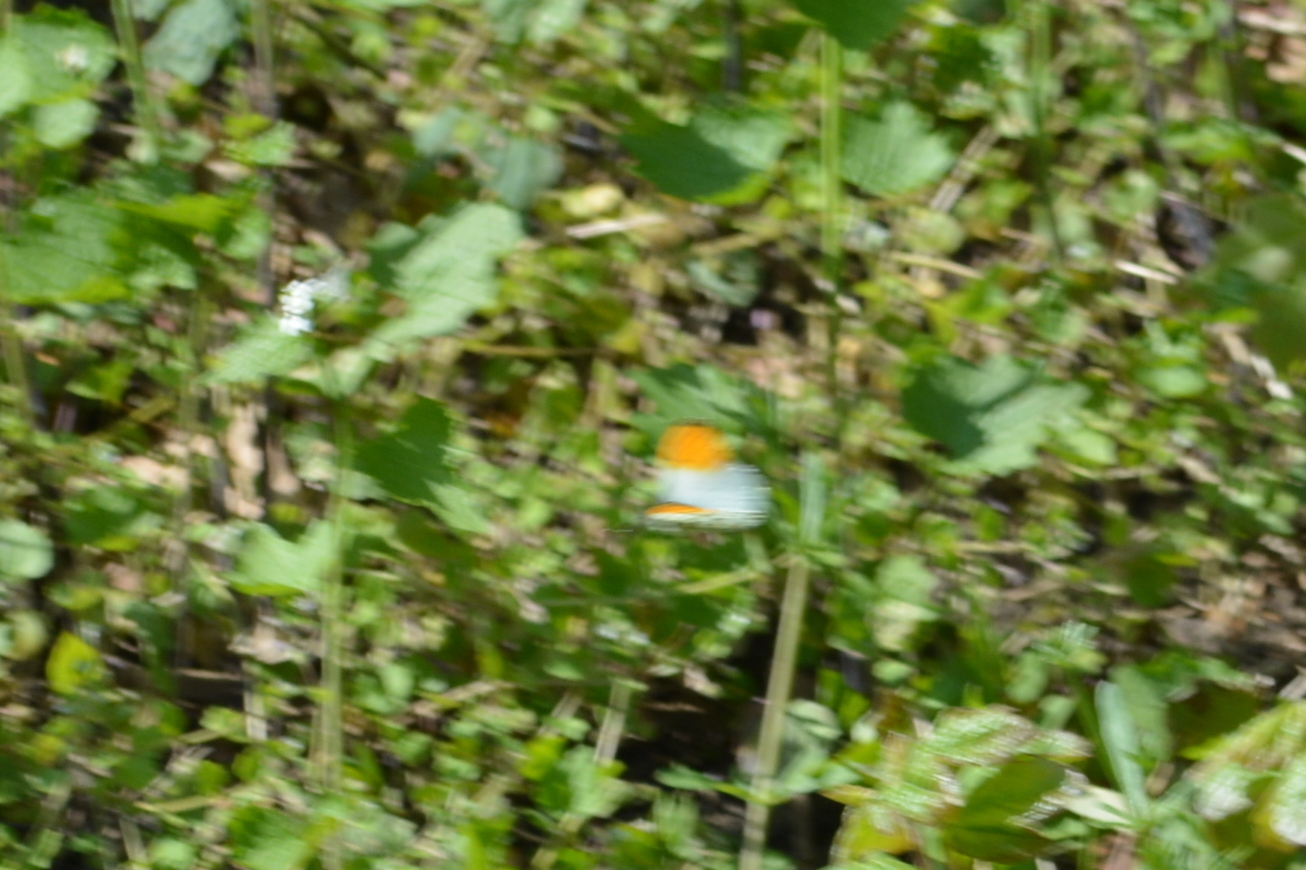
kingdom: Animalia
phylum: Arthropoda
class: Insecta
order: Lepidoptera
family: Pieridae
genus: Anthocharis
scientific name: Anthocharis cardamines
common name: Orange-tip
